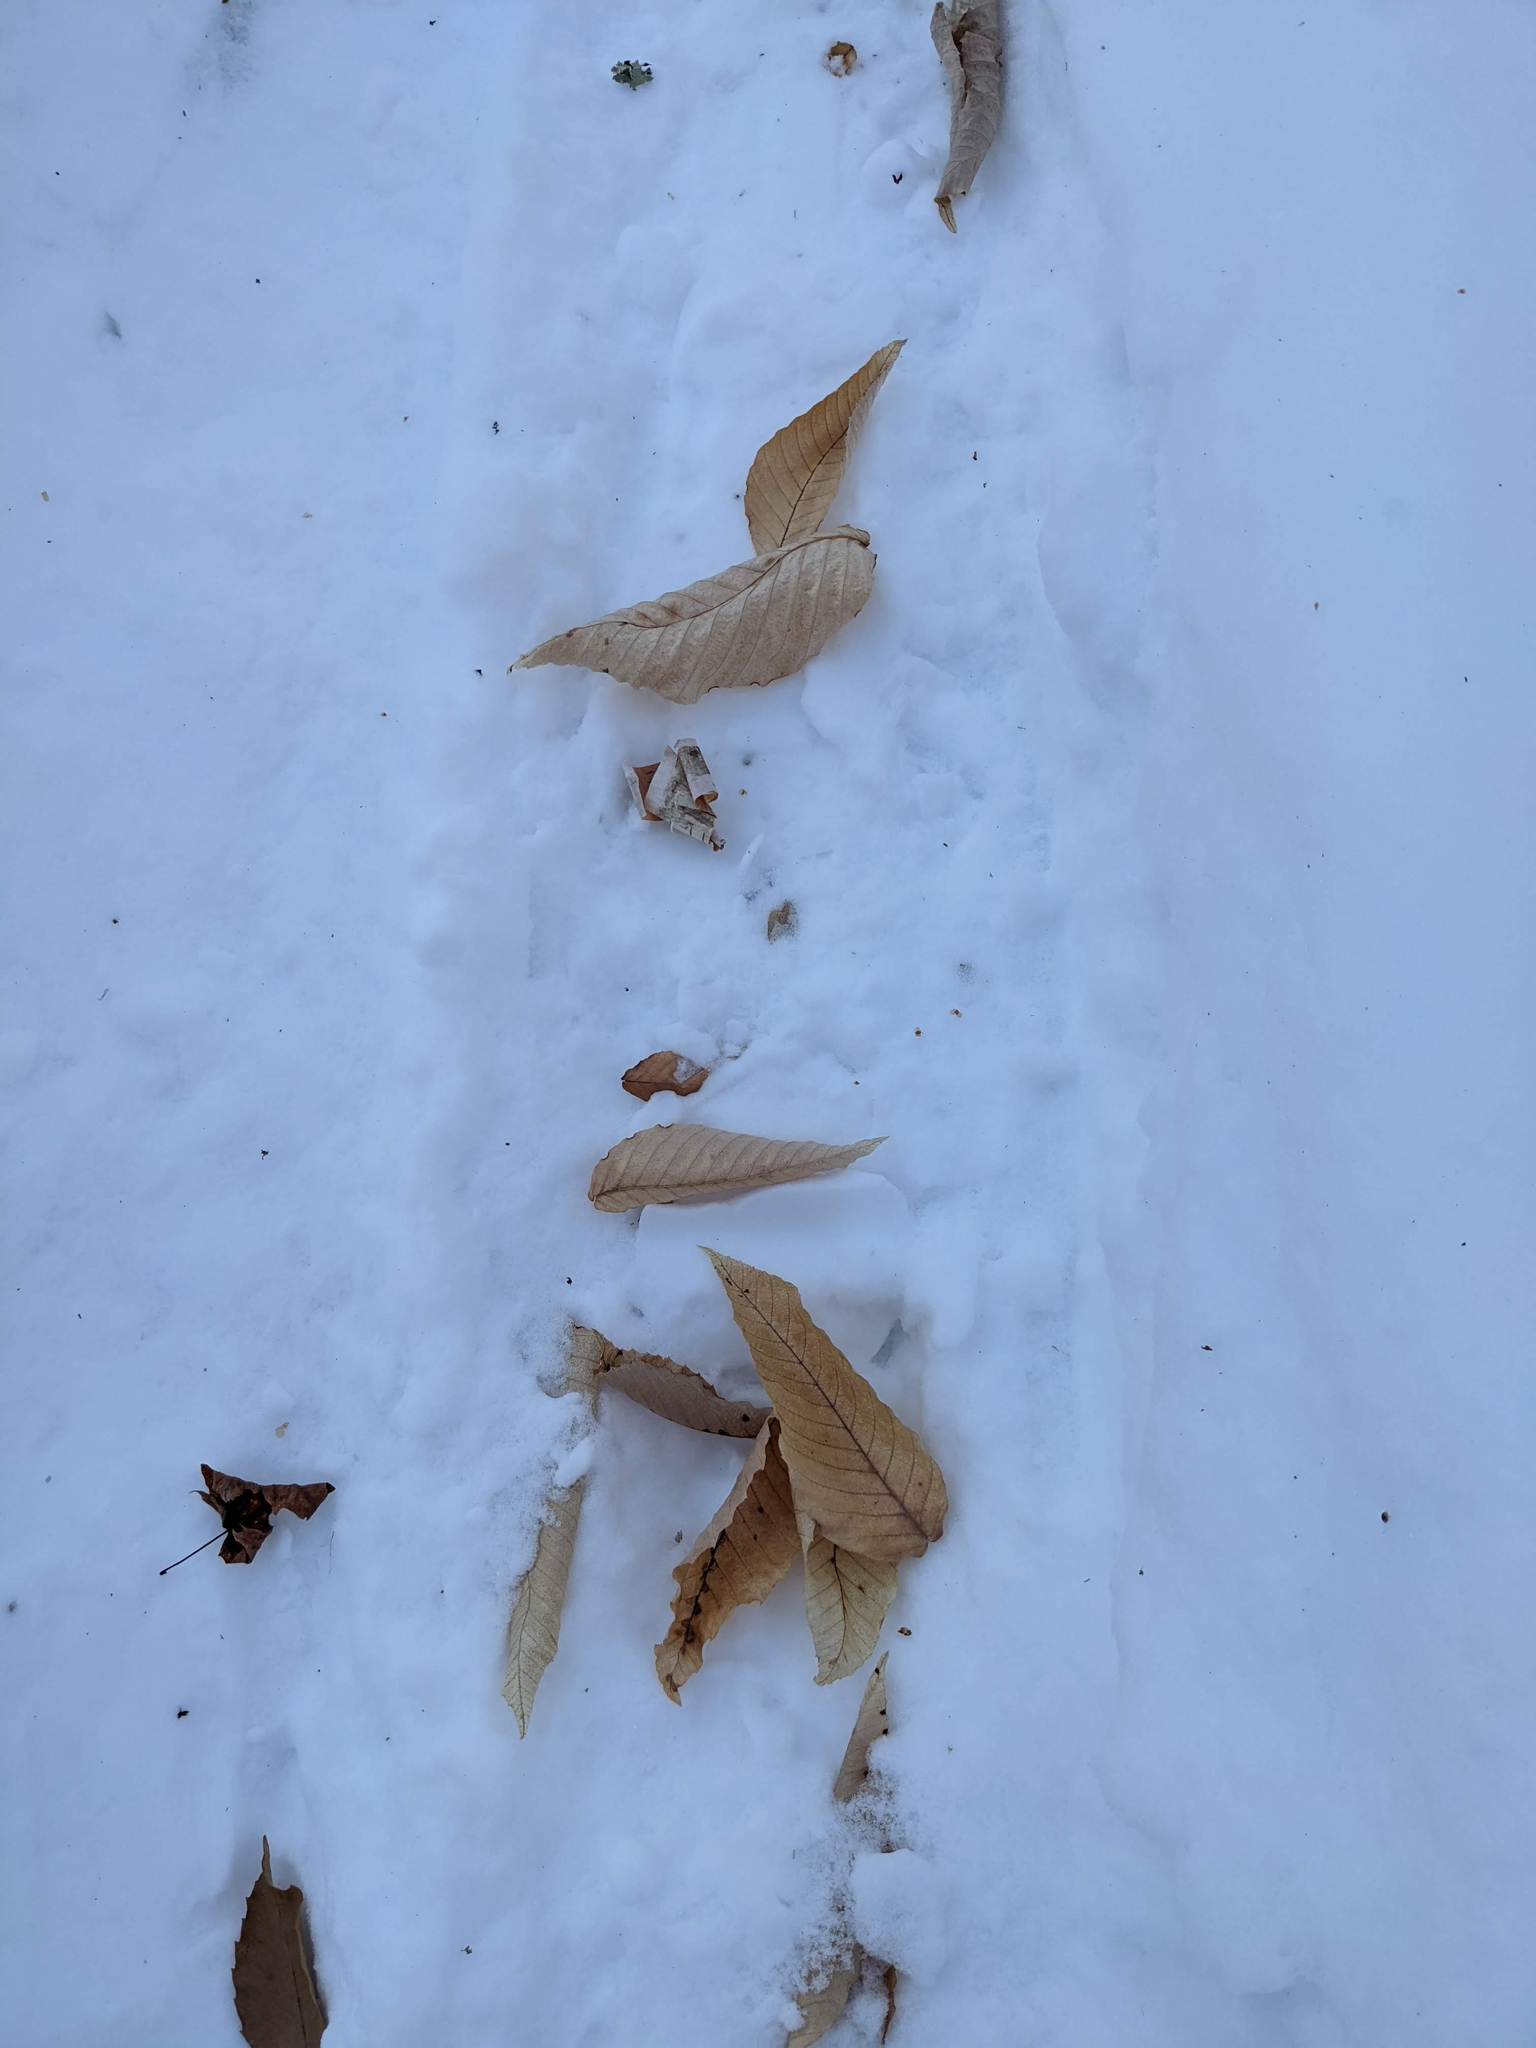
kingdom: Plantae
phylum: Tracheophyta
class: Magnoliopsida
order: Fagales
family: Fagaceae
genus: Fagus
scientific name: Fagus grandifolia
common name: American beech
